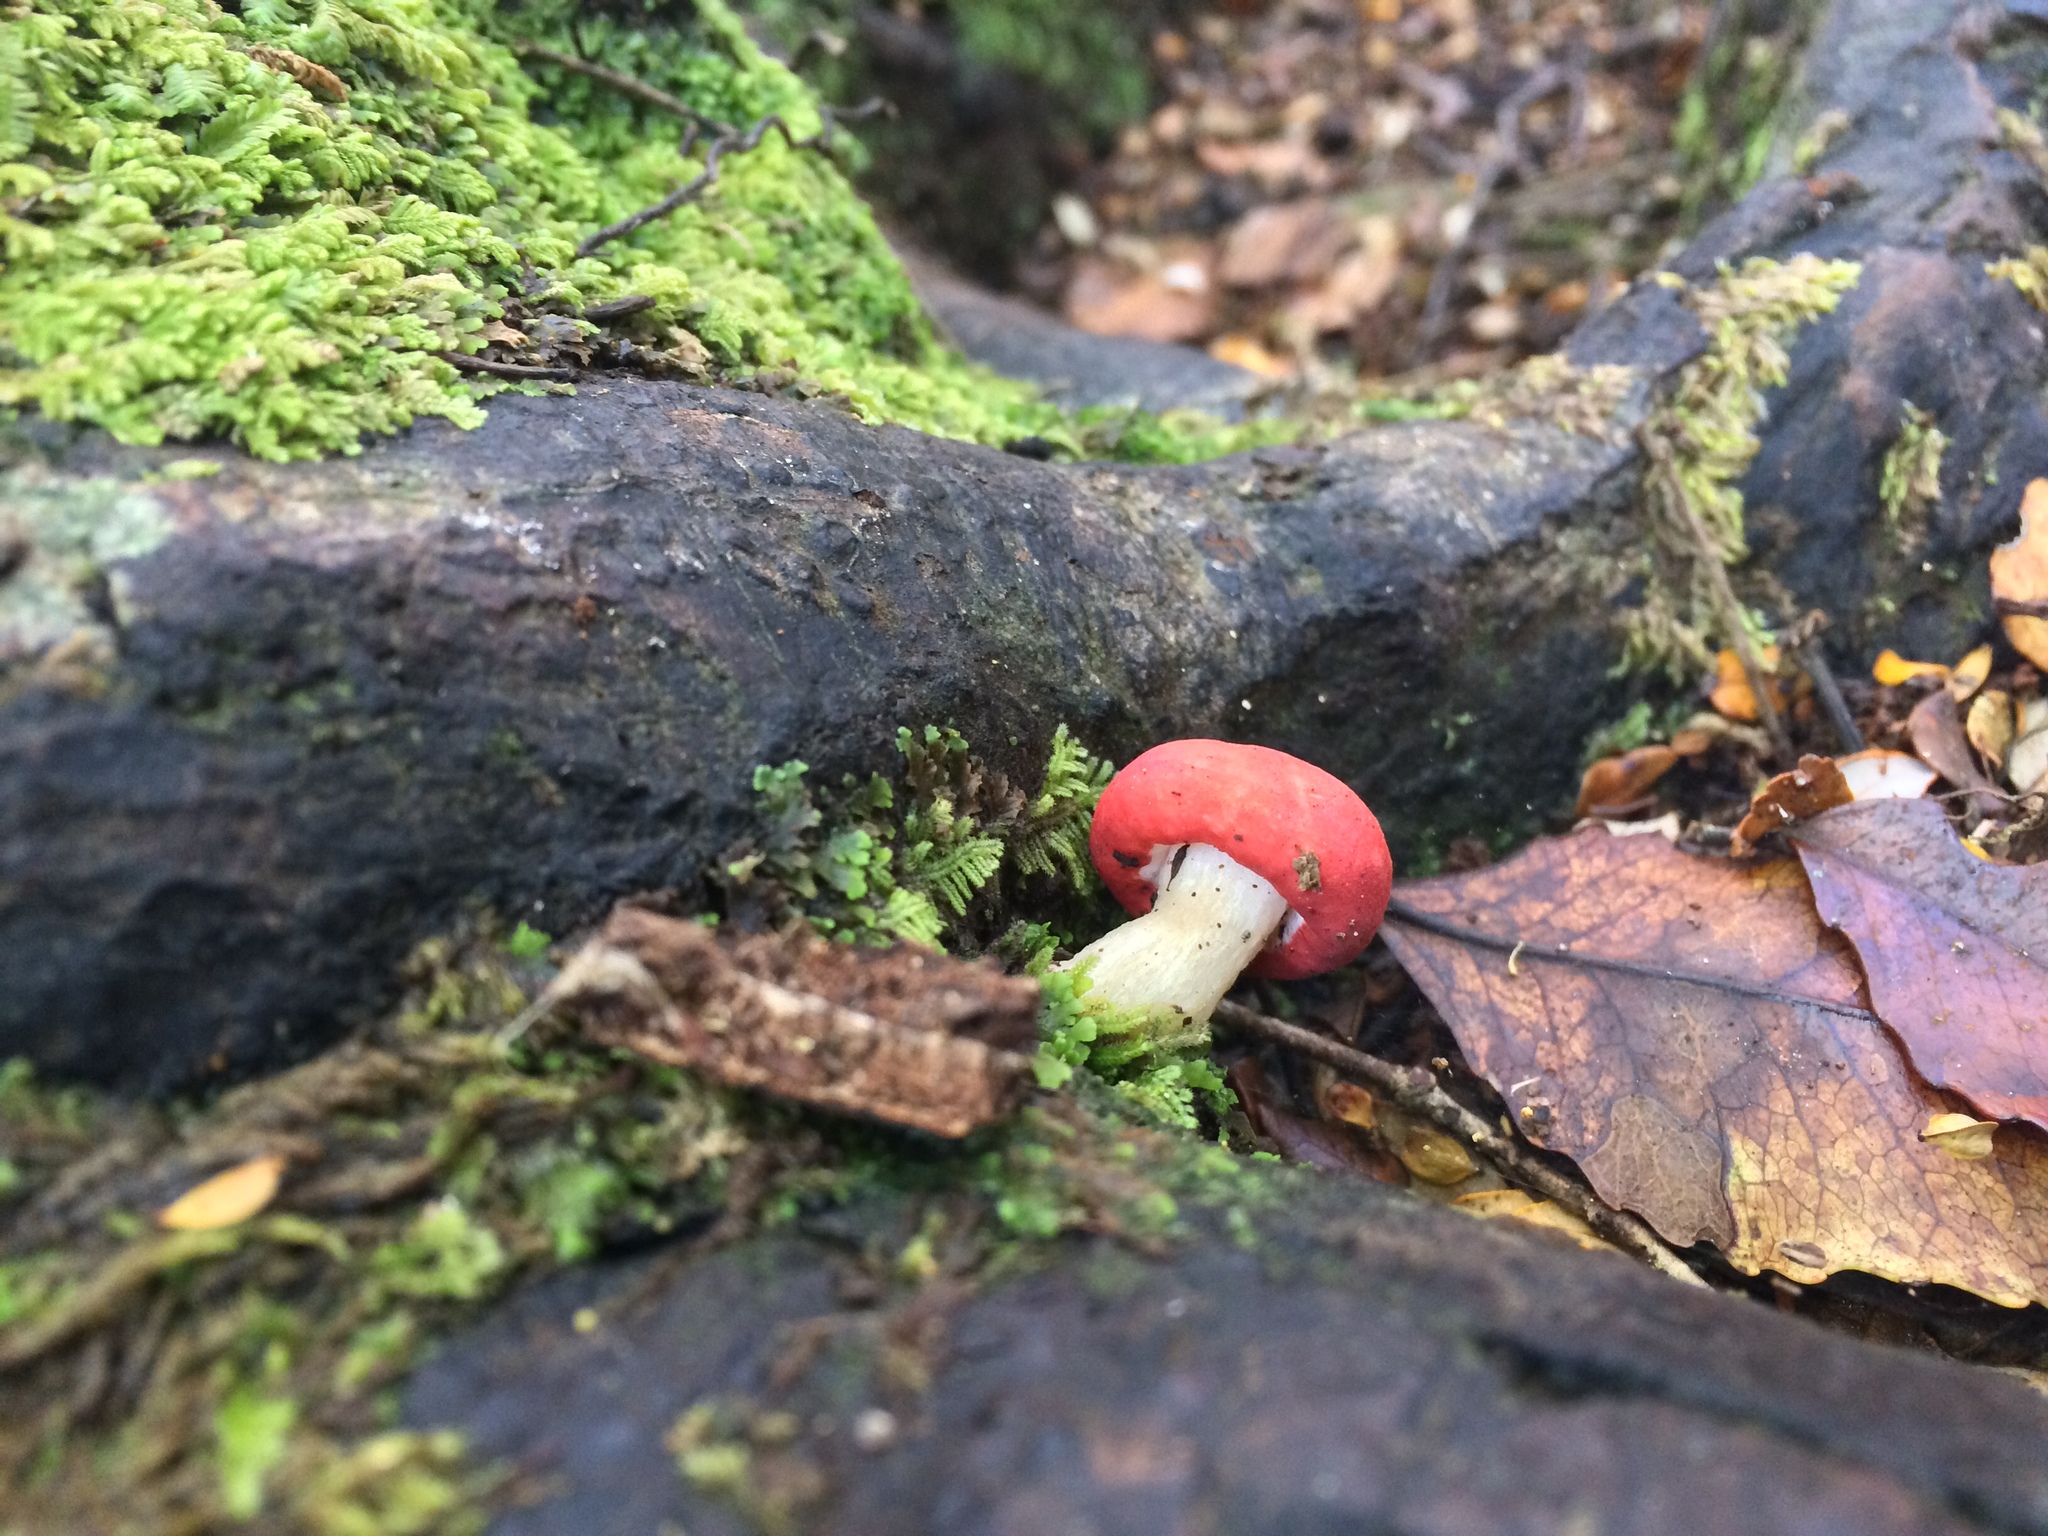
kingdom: Fungi
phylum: Basidiomycota
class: Agaricomycetes
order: Russulales
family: Russulaceae
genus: Russula
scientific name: Russula kermesina
